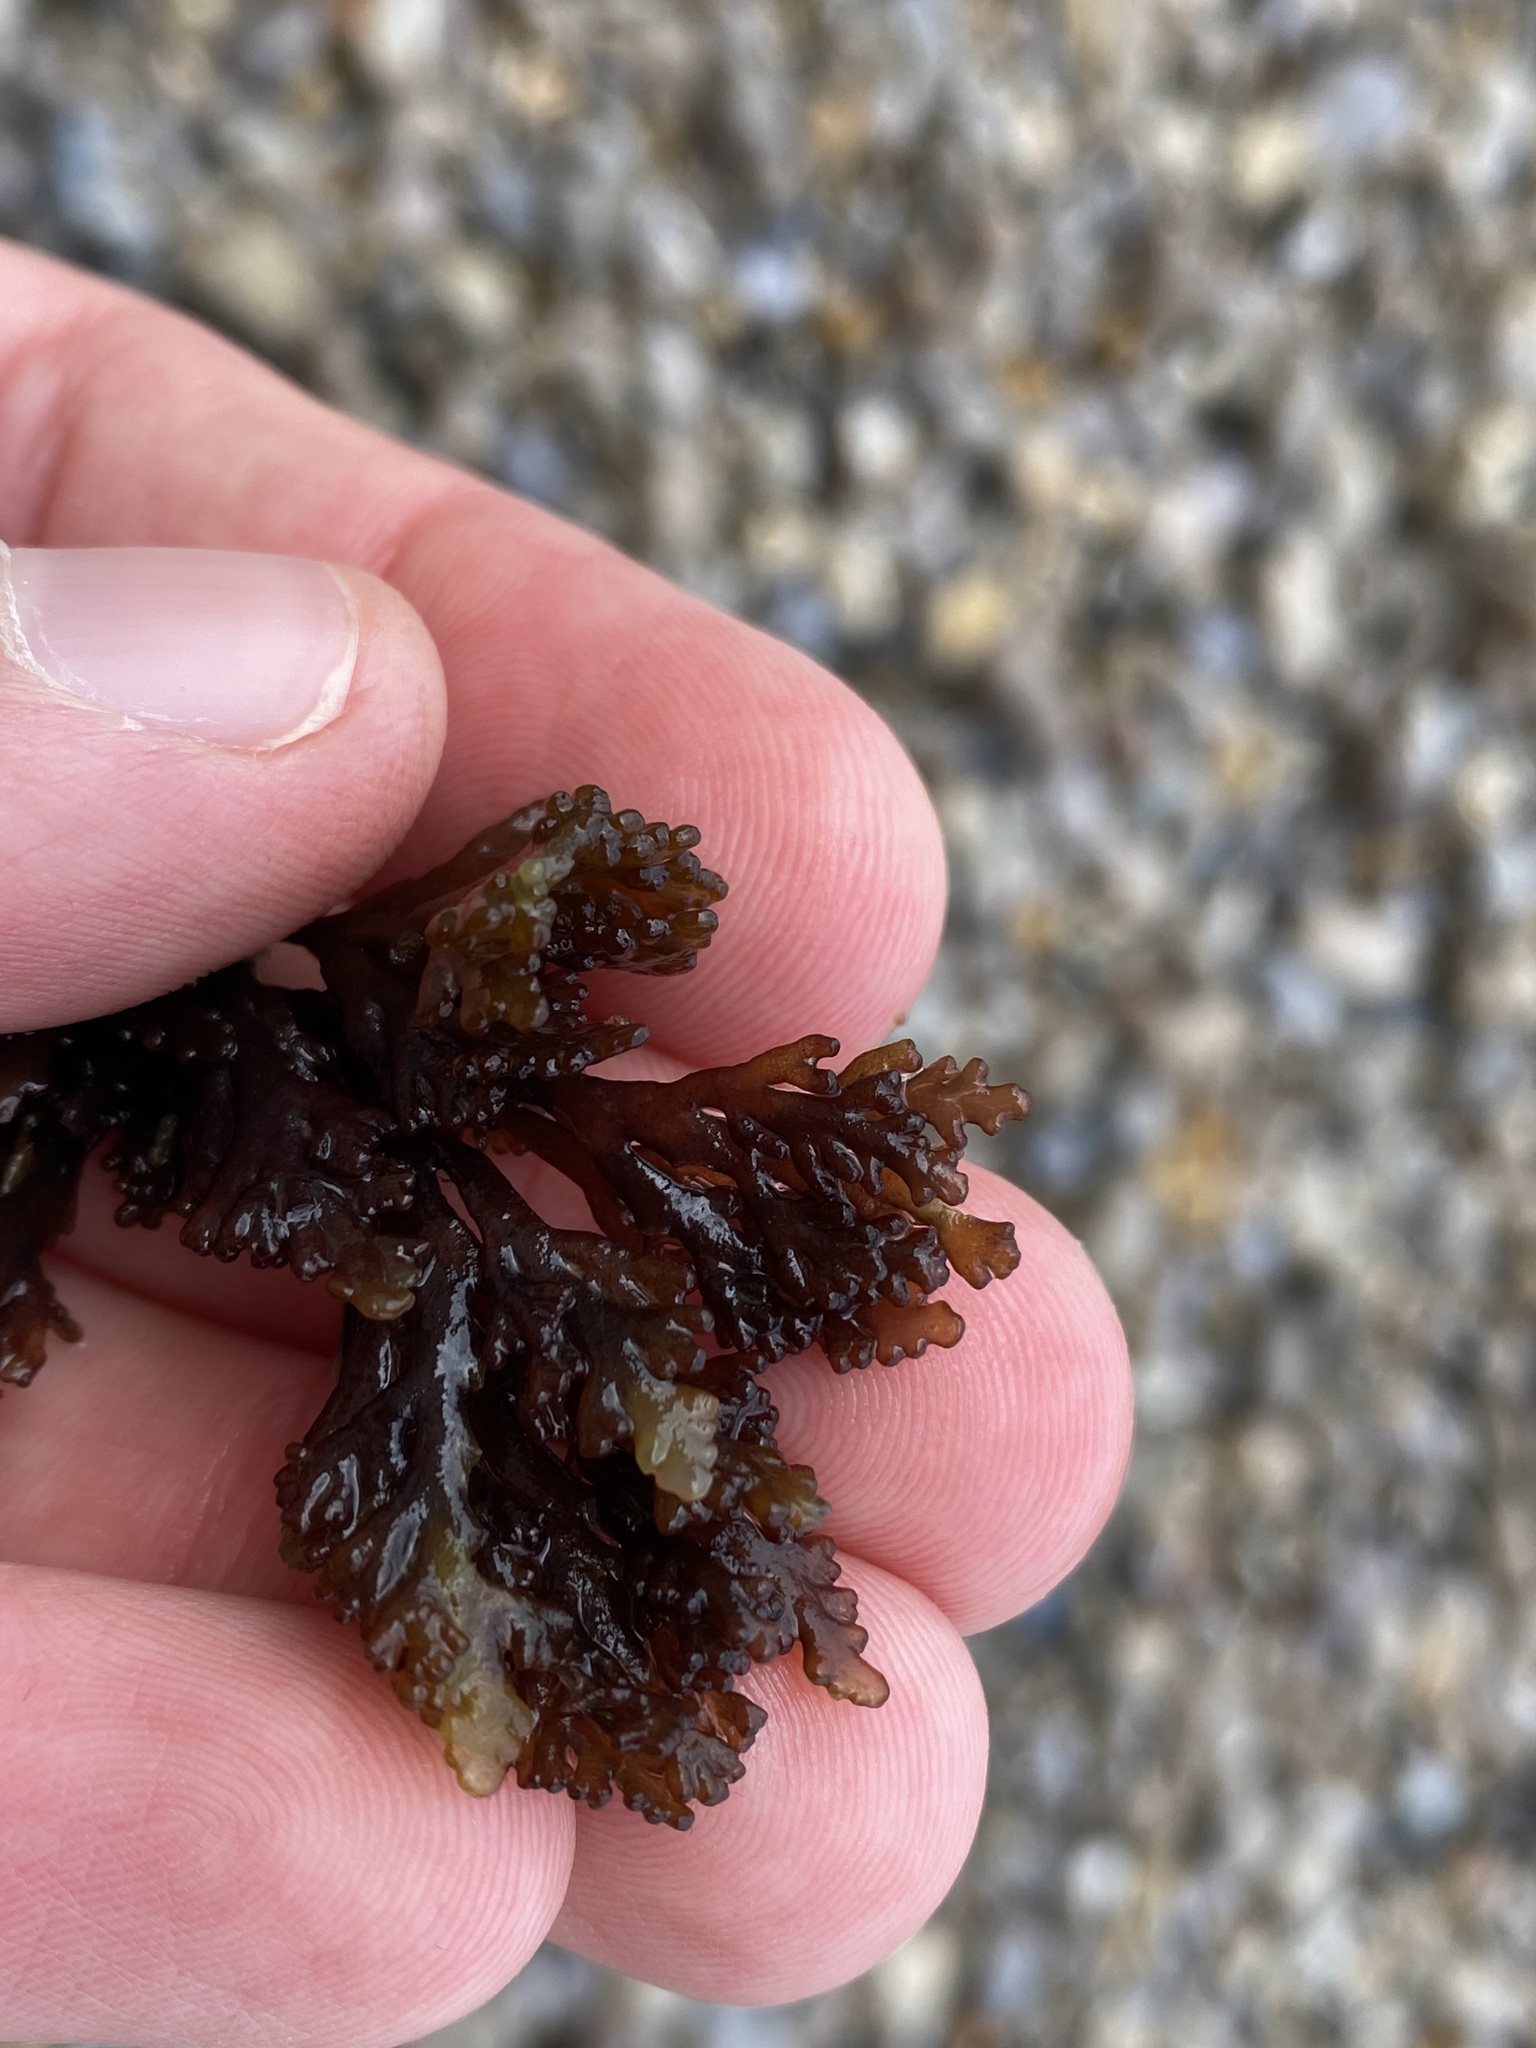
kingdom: Plantae
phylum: Rhodophyta
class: Florideophyceae
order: Ceramiales
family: Rhodomelaceae
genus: Laurencia
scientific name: Laurencia Osmundea pinnatifida
